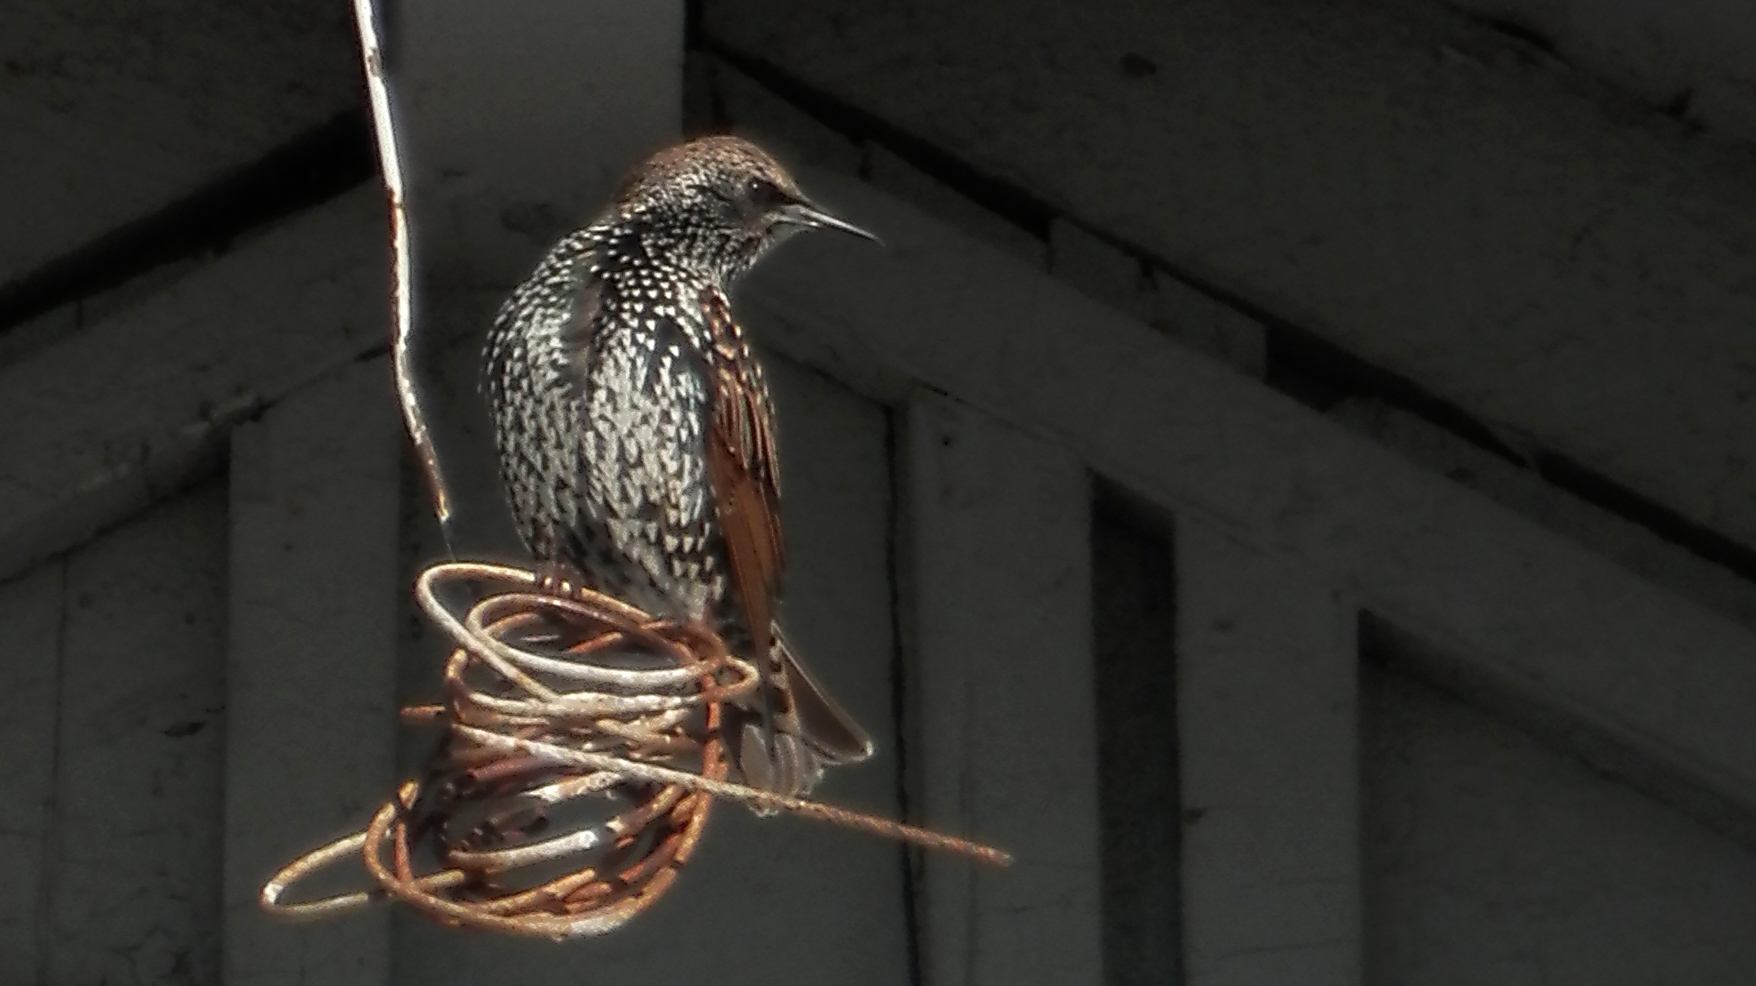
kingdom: Animalia
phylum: Chordata
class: Aves
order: Passeriformes
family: Sturnidae
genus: Sturnus
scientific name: Sturnus vulgaris
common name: Common starling
